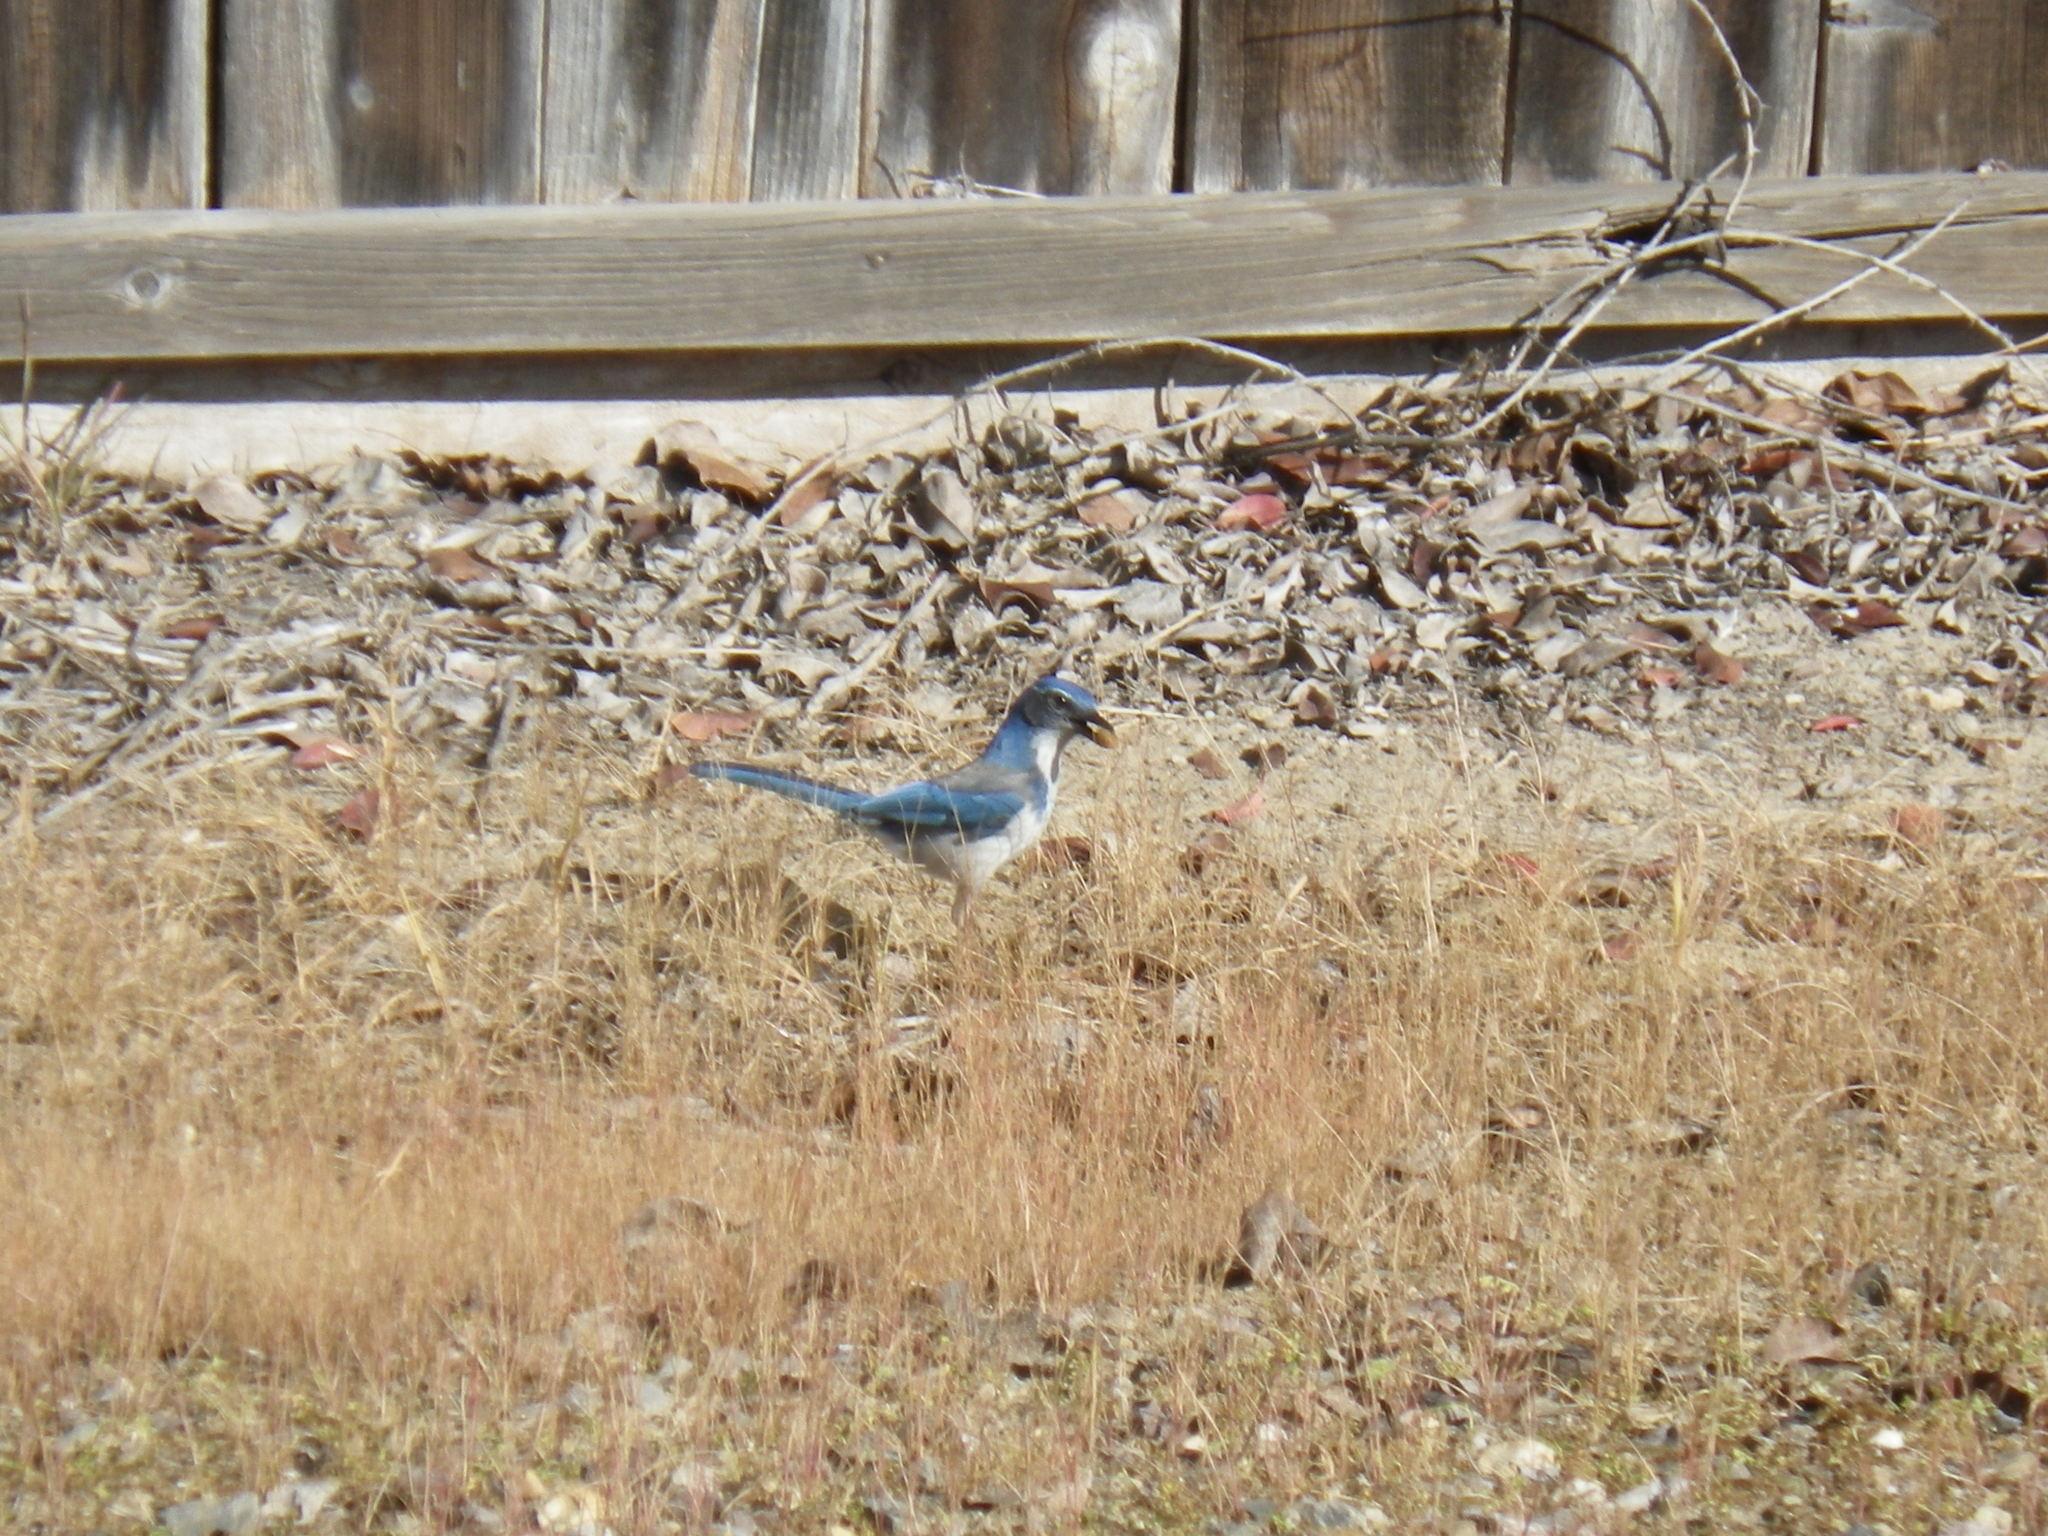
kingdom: Animalia
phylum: Chordata
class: Aves
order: Passeriformes
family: Corvidae
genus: Aphelocoma
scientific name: Aphelocoma californica
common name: California scrub-jay
